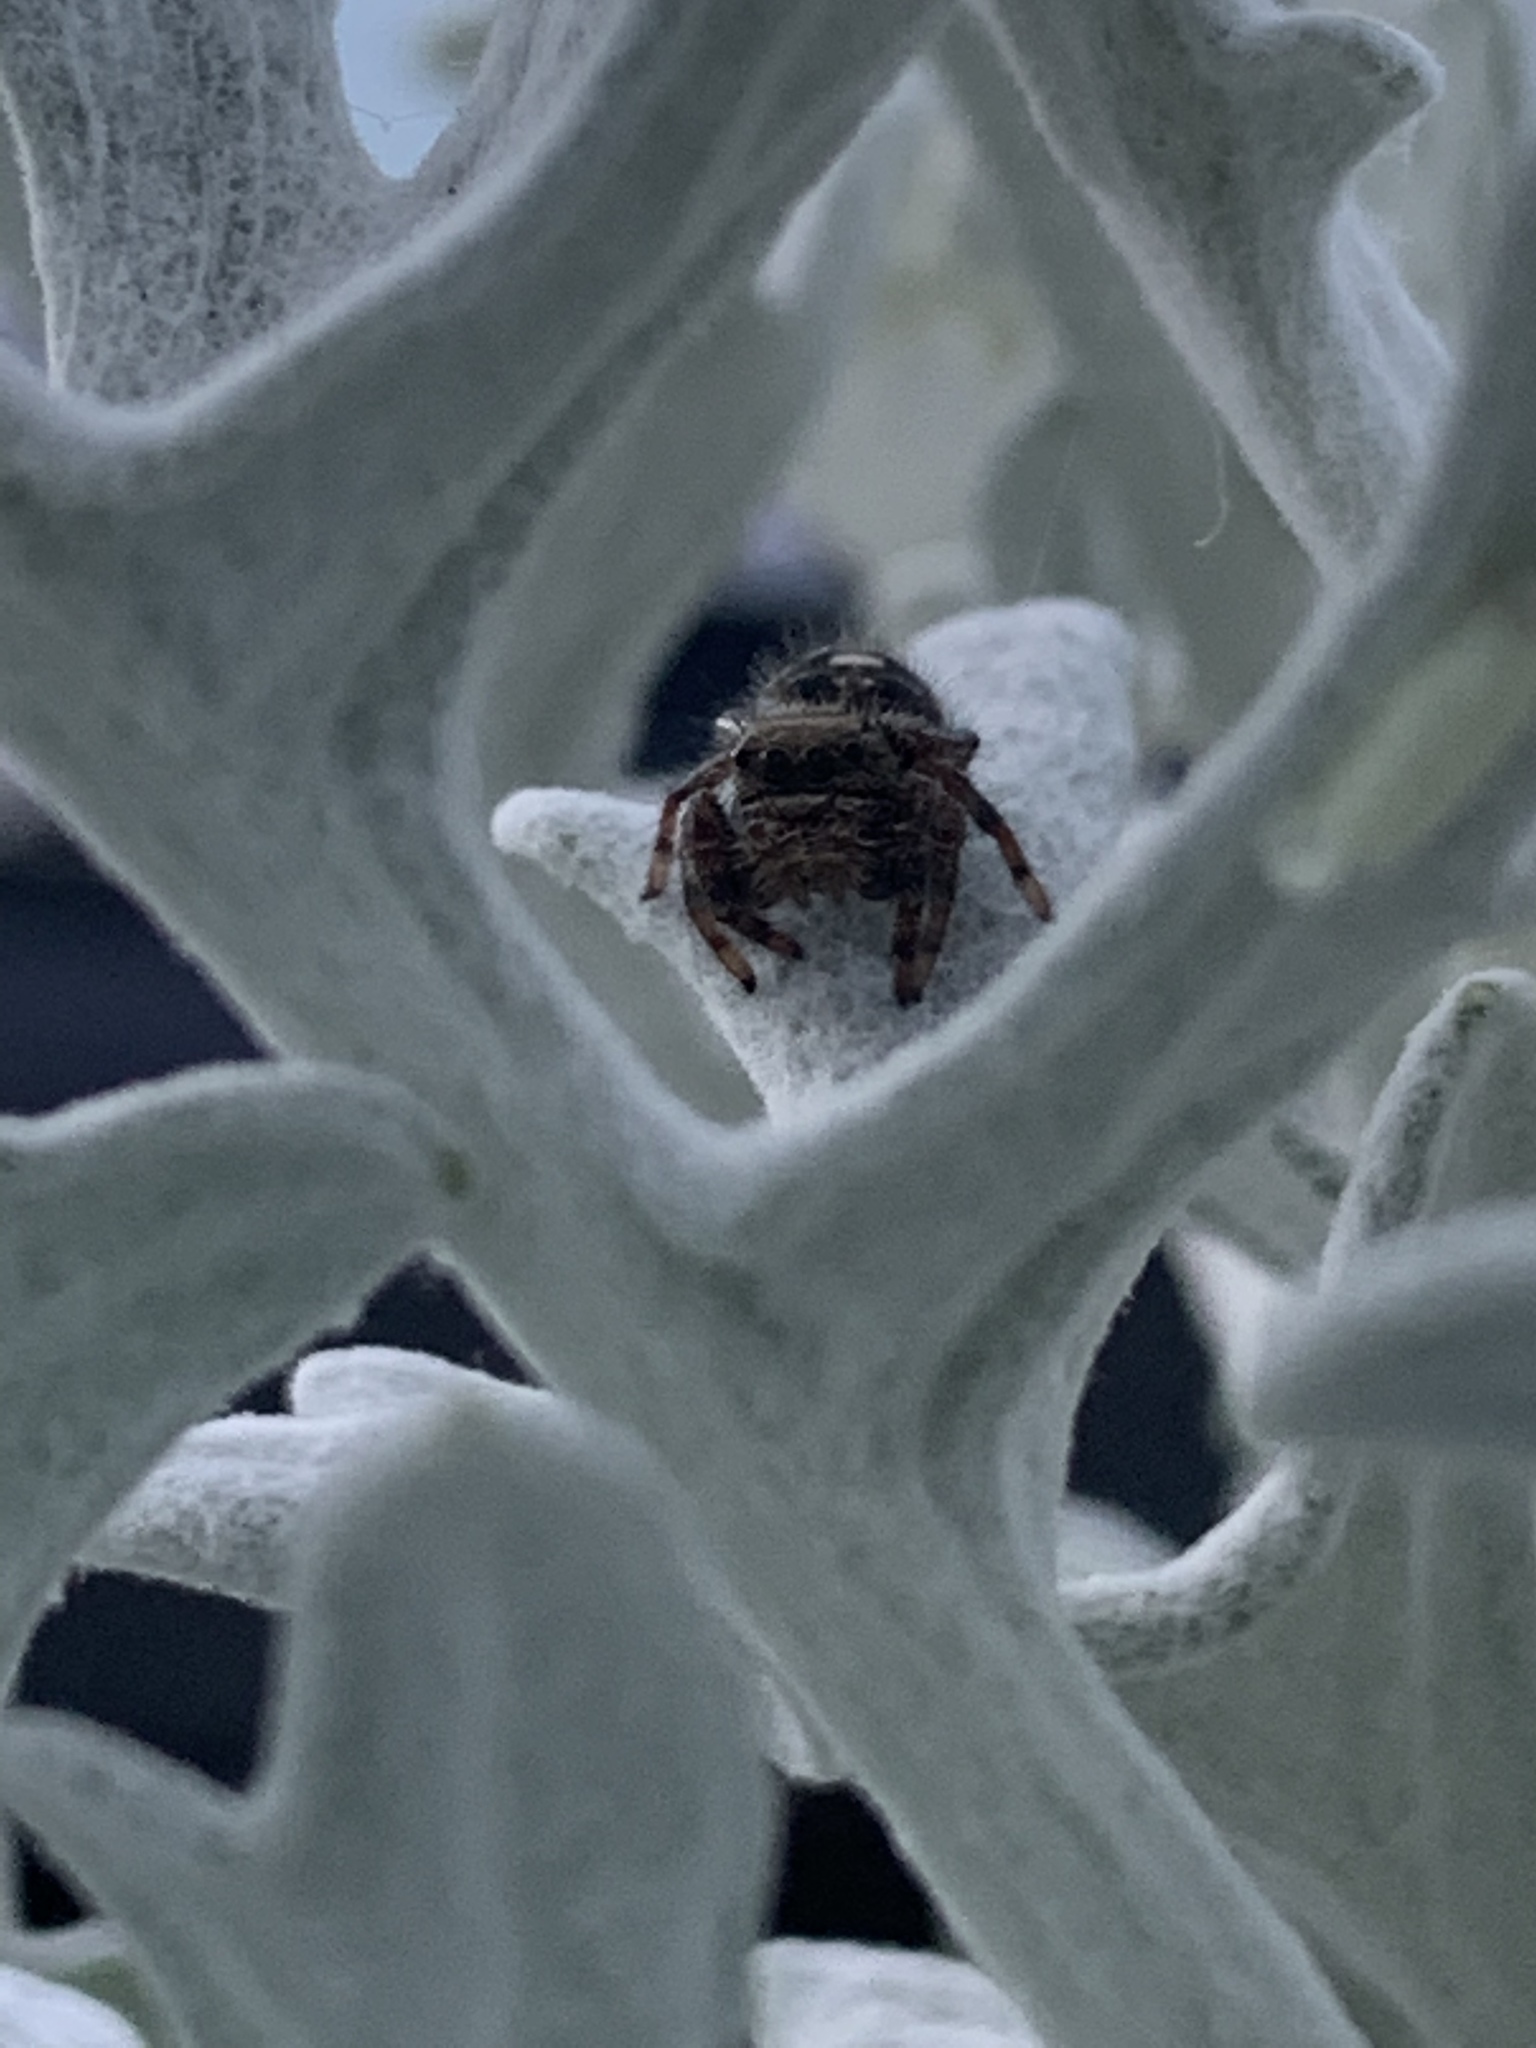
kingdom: Animalia
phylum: Arthropoda
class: Arachnida
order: Araneae
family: Salticidae
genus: Phidippus
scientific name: Phidippus audax
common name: Bold jumper
